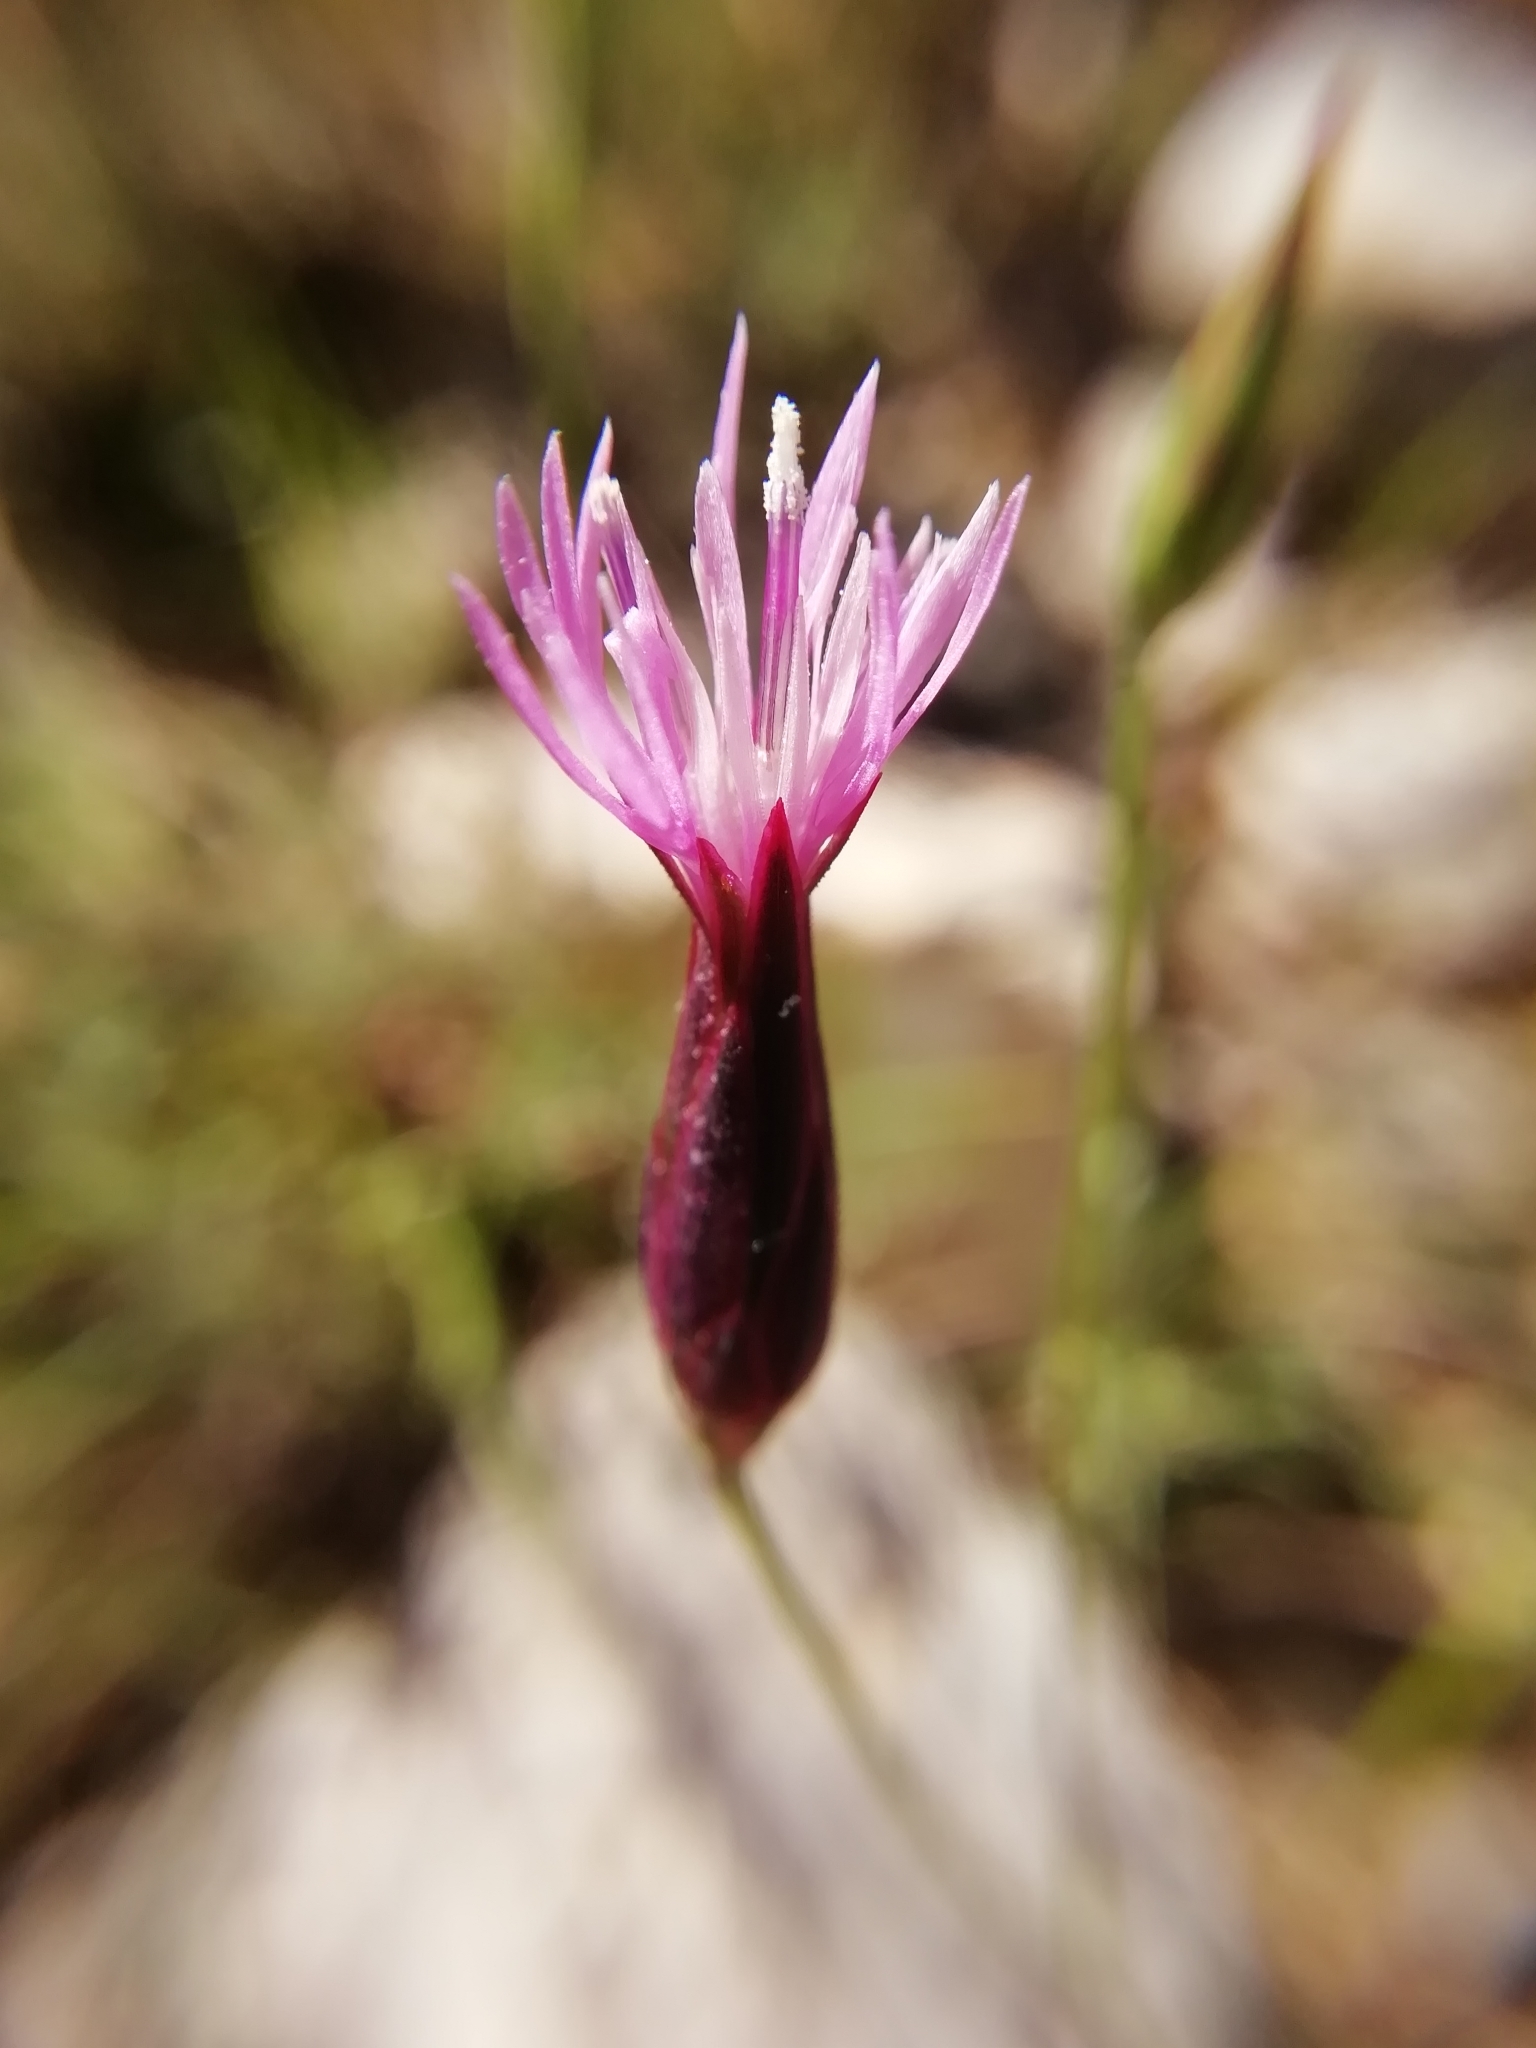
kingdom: Plantae
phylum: Tracheophyta
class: Magnoliopsida
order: Asterales
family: Asteraceae
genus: Crupina
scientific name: Crupina vulgaris
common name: Common crupina
